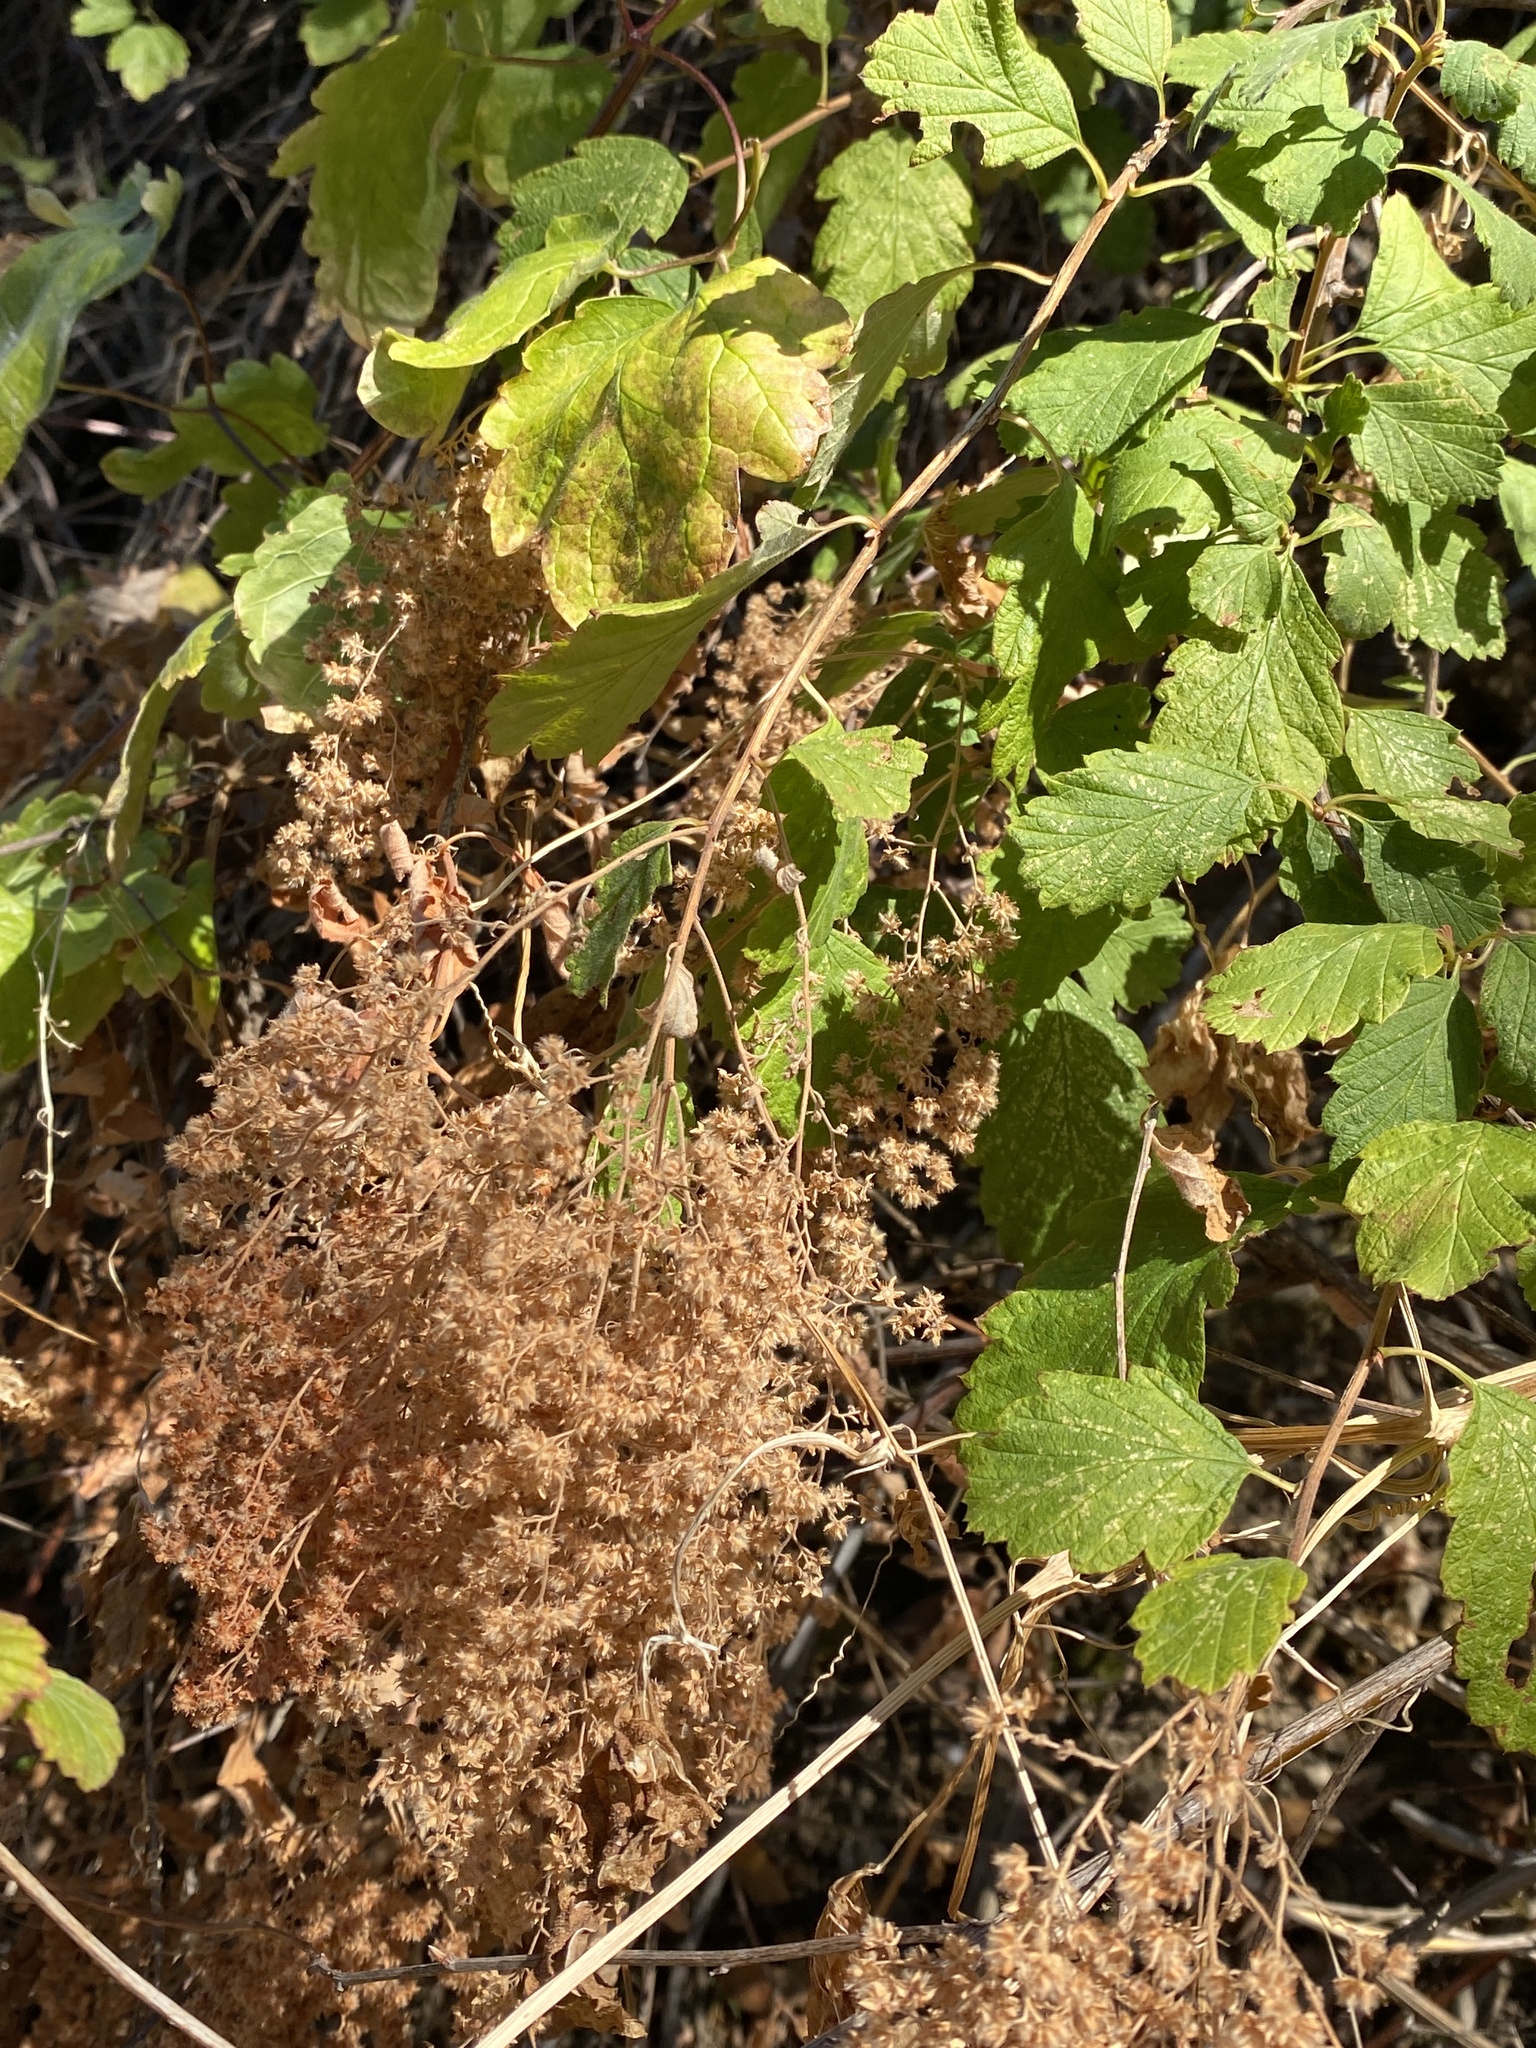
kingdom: Plantae
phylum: Tracheophyta
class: Magnoliopsida
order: Rosales
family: Rosaceae
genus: Holodiscus
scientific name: Holodiscus discolor
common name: Oceanspray
